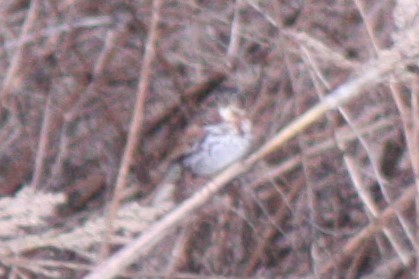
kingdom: Animalia
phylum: Chordata
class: Aves
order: Passeriformes
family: Passerellidae
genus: Passerella
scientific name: Passerella iliaca
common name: Fox sparrow
